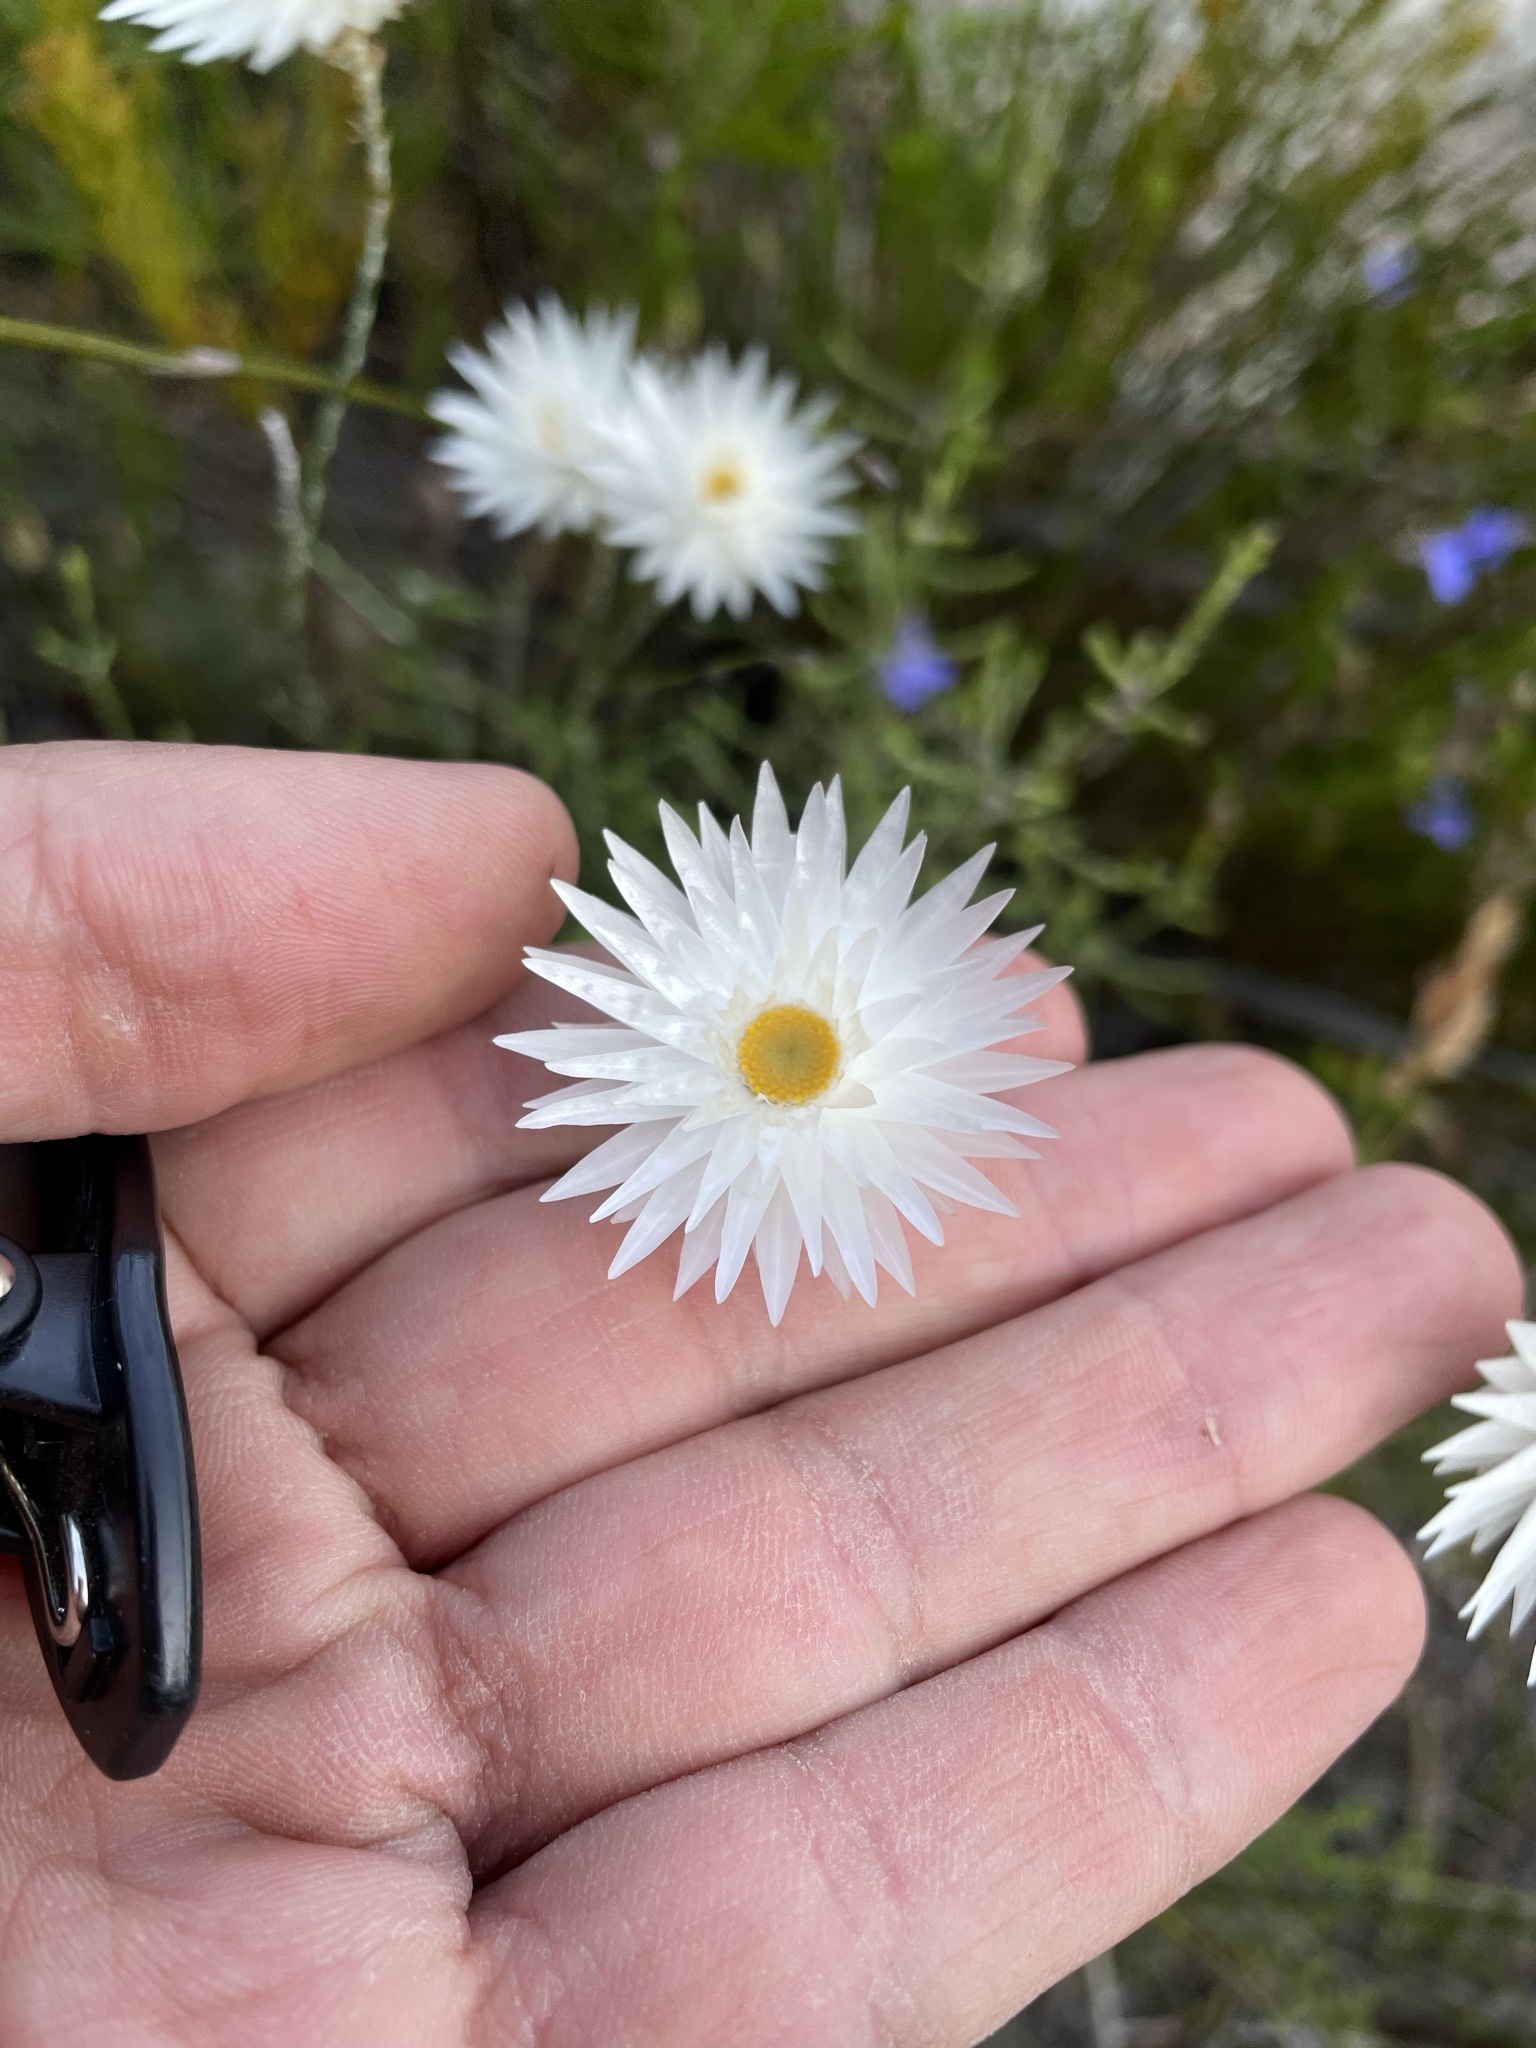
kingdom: Plantae
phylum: Tracheophyta
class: Magnoliopsida
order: Asterales
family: Asteraceae
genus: Edmondia
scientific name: Edmondia sesamoides
